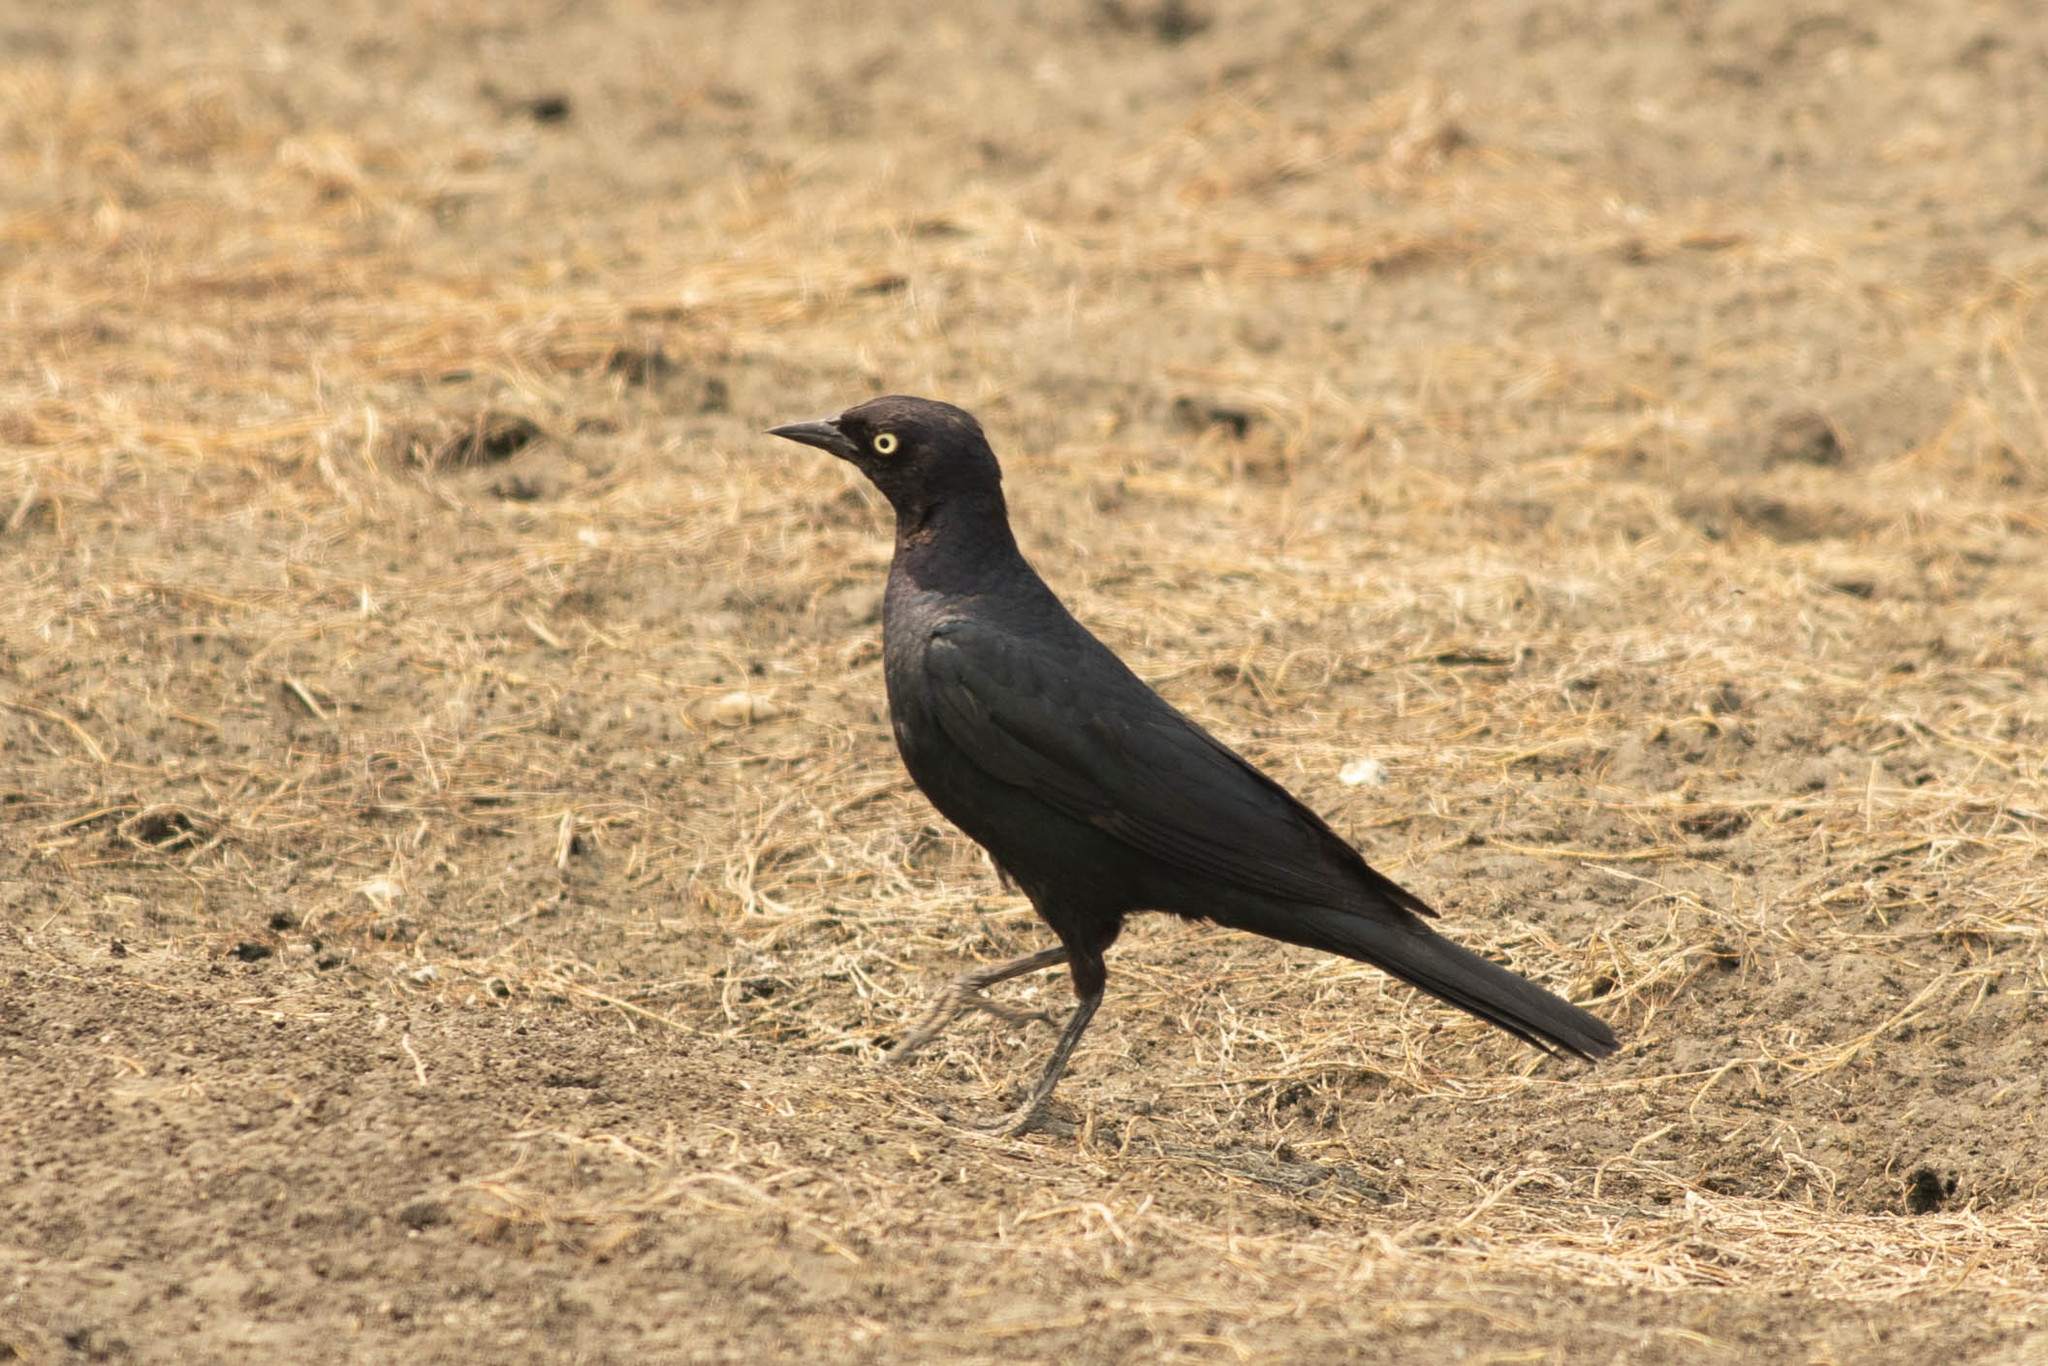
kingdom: Animalia
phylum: Chordata
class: Aves
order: Passeriformes
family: Icteridae
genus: Euphagus
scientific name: Euphagus cyanocephalus
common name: Brewer's blackbird
